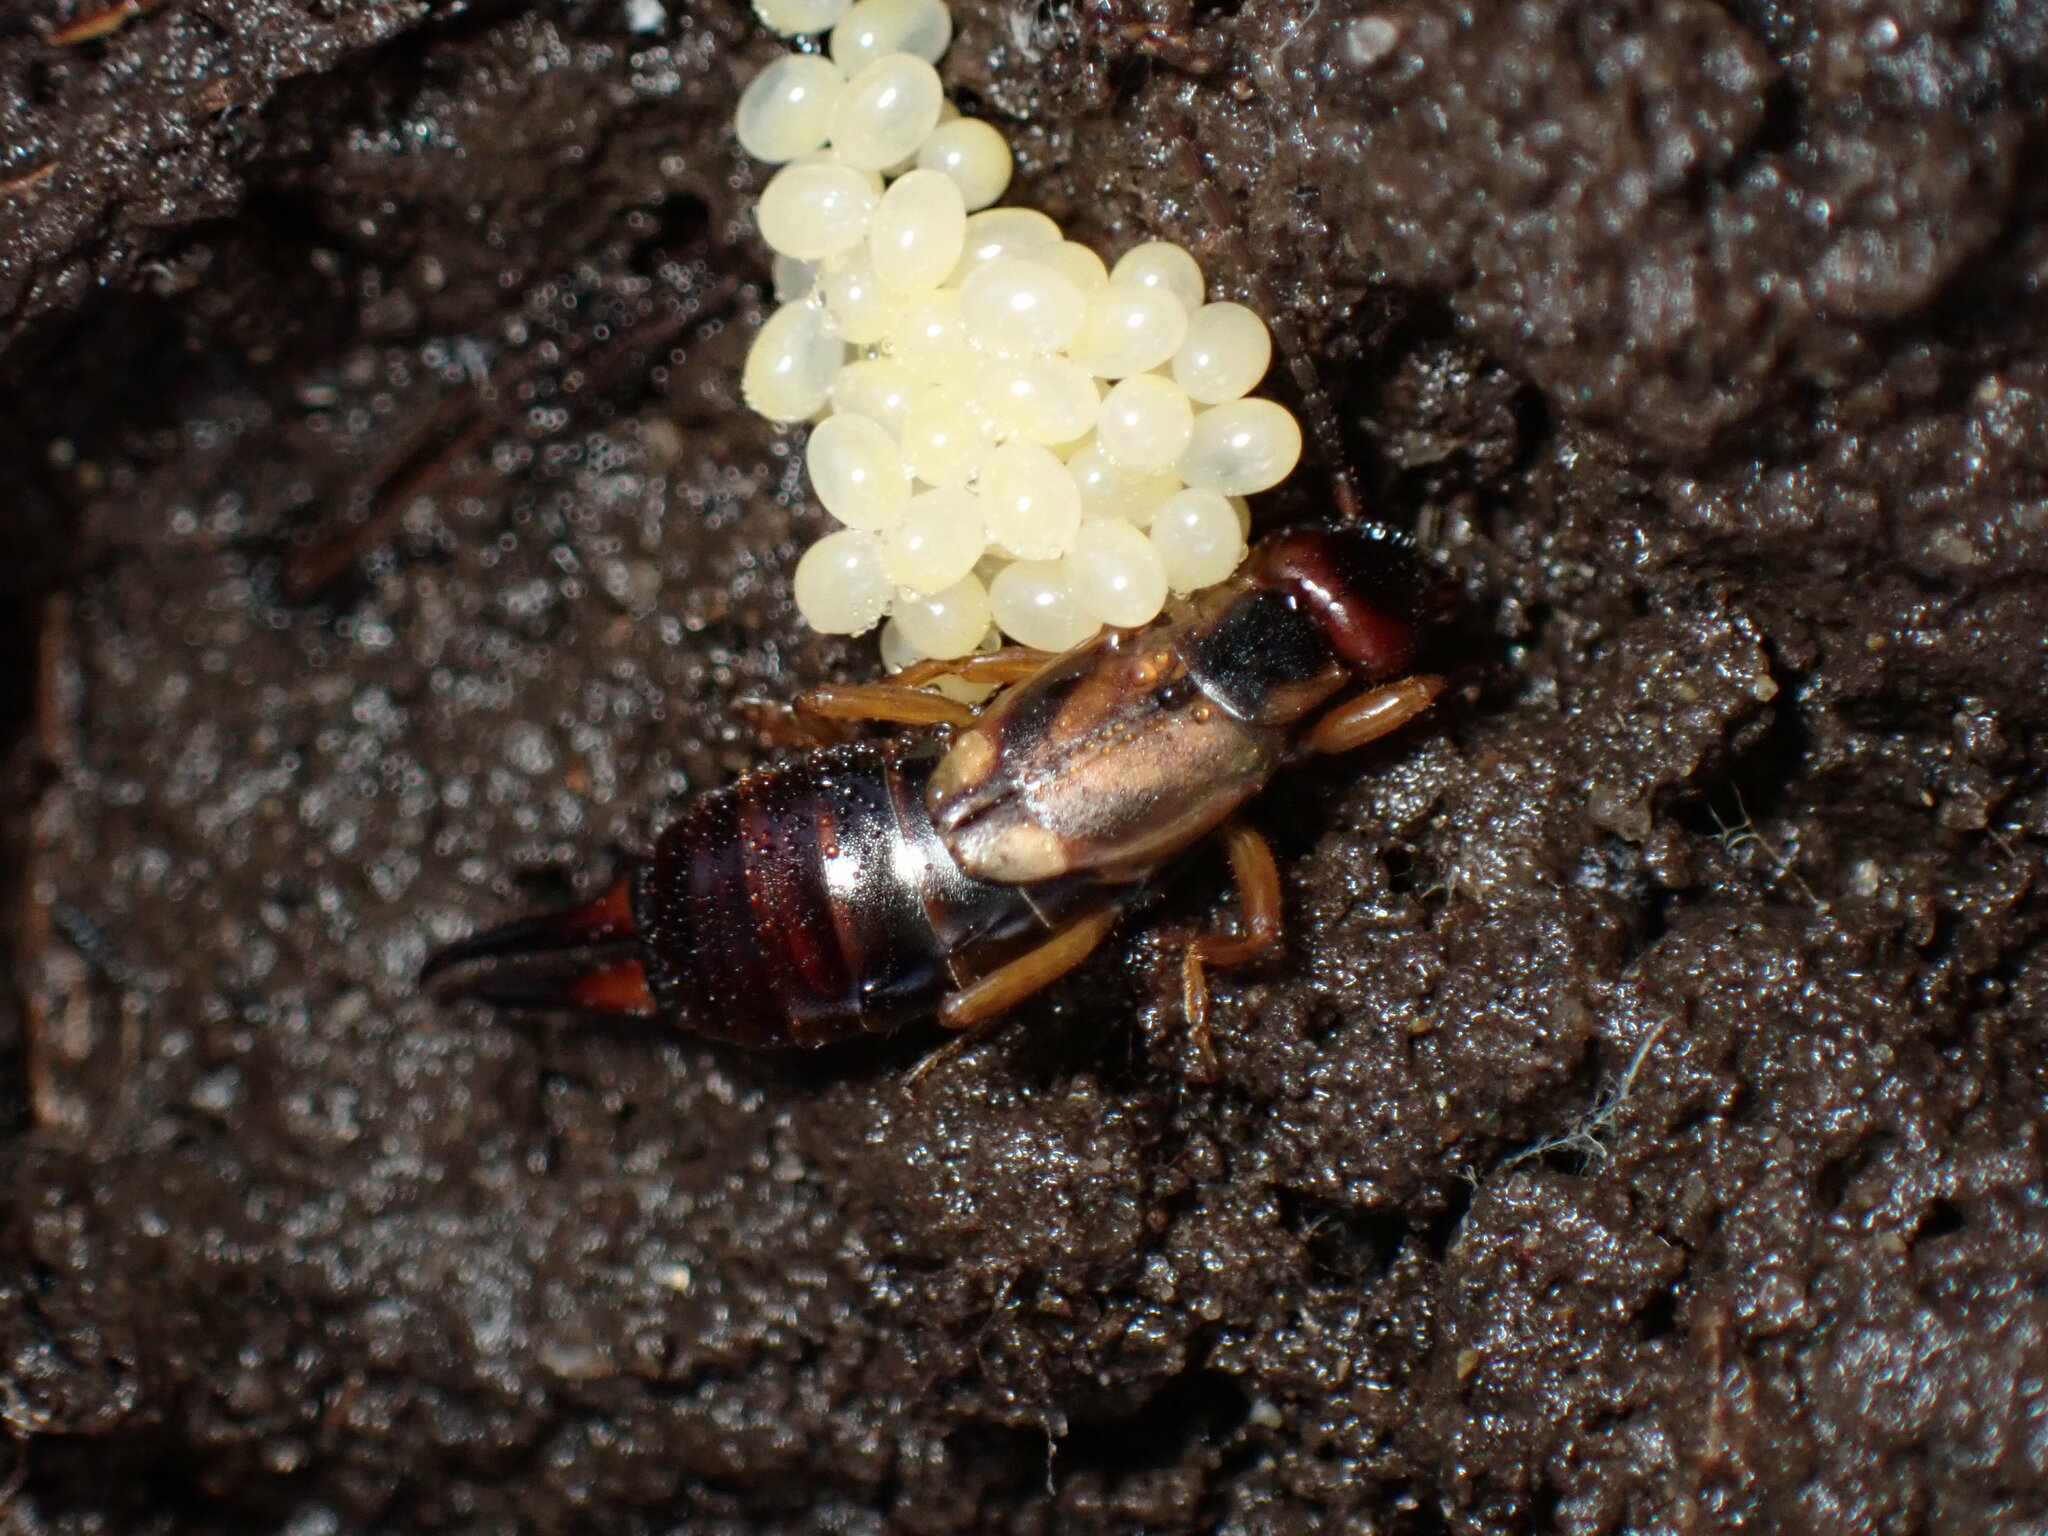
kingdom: Animalia
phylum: Arthropoda
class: Insecta
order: Dermaptera
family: Forficulidae
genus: Forficula
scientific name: Forficula auricularia
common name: European earwig
